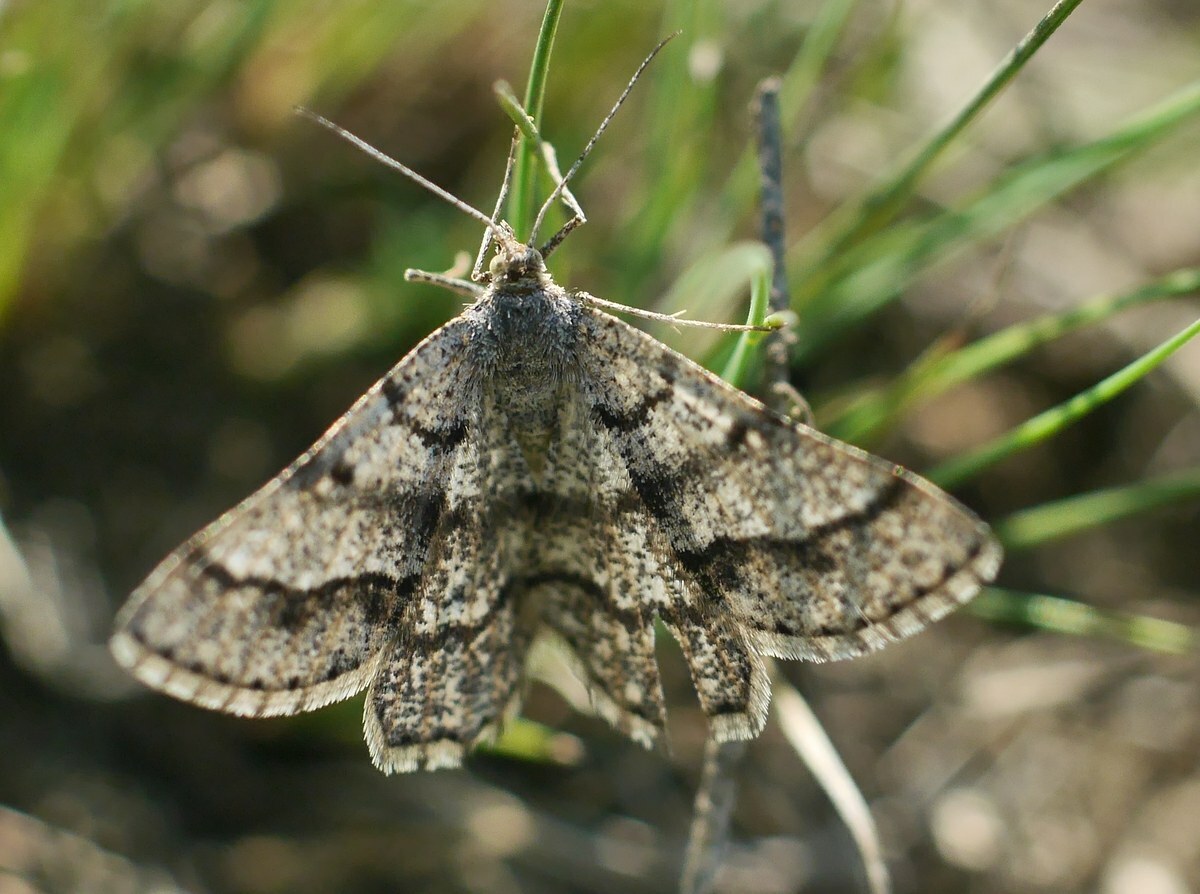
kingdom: Animalia
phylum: Arthropoda
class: Insecta
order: Lepidoptera
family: Geometridae
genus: Tephrina
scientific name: Tephrina murinaria
